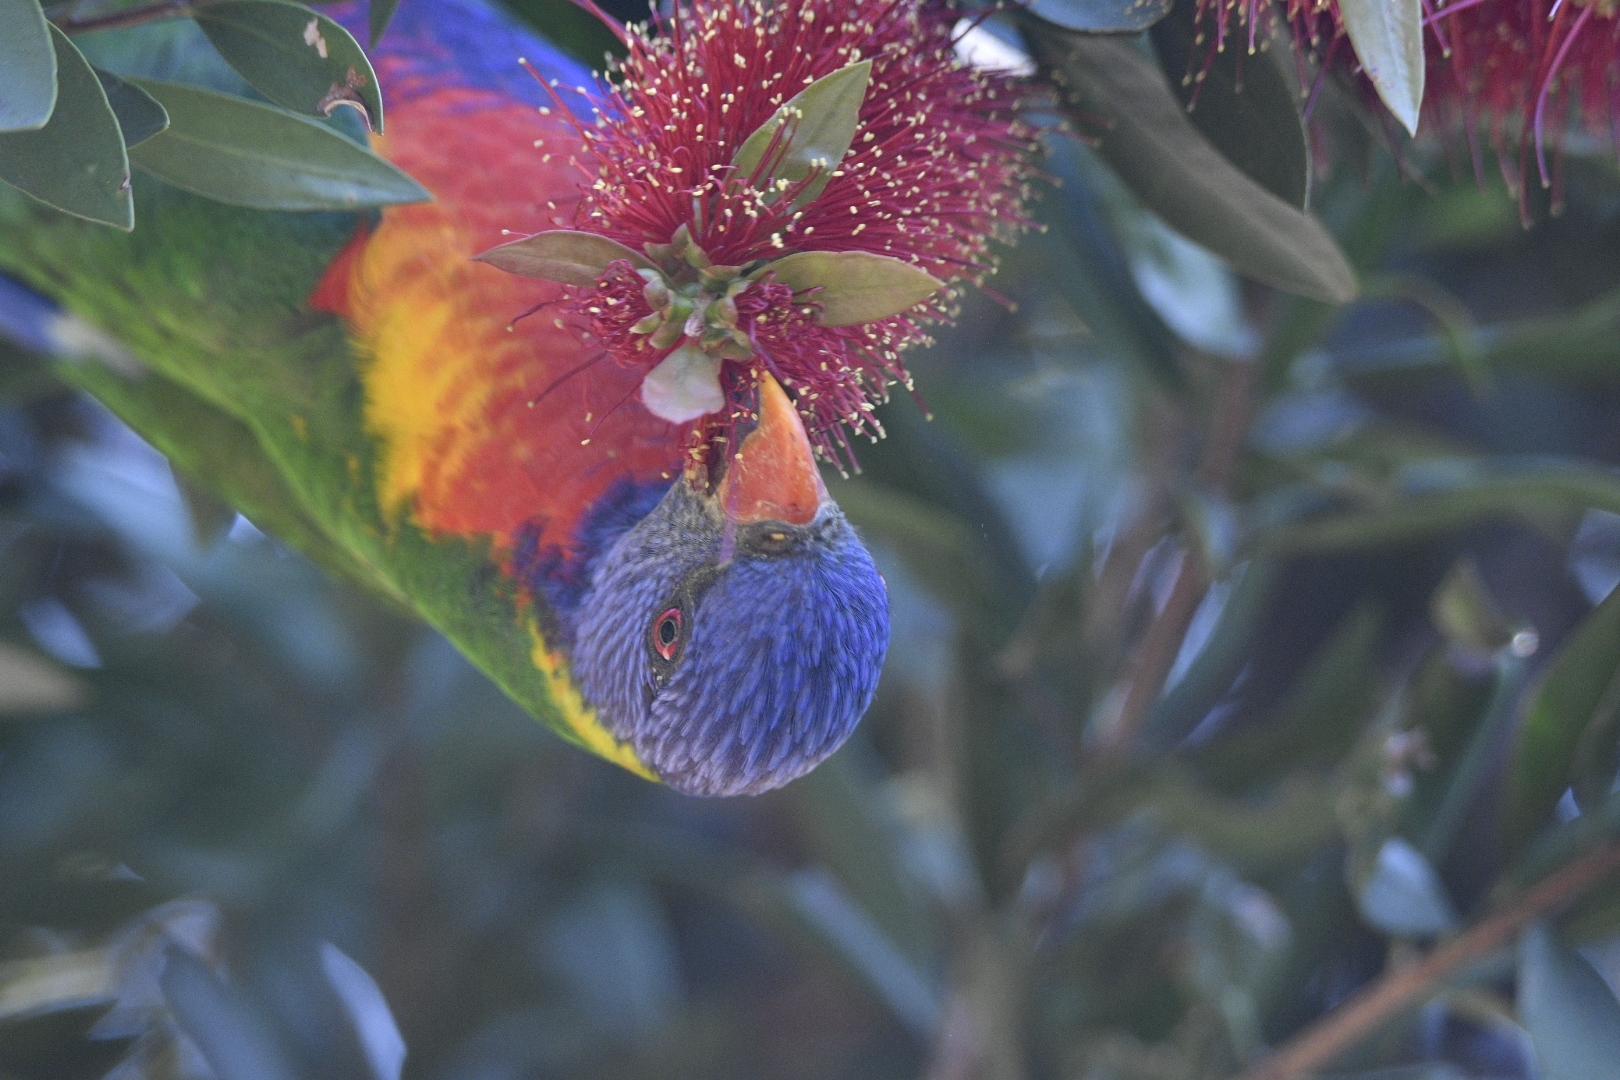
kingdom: Animalia
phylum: Chordata
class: Aves
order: Psittaciformes
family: Psittacidae
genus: Trichoglossus
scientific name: Trichoglossus haematodus
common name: Coconut lorikeet
